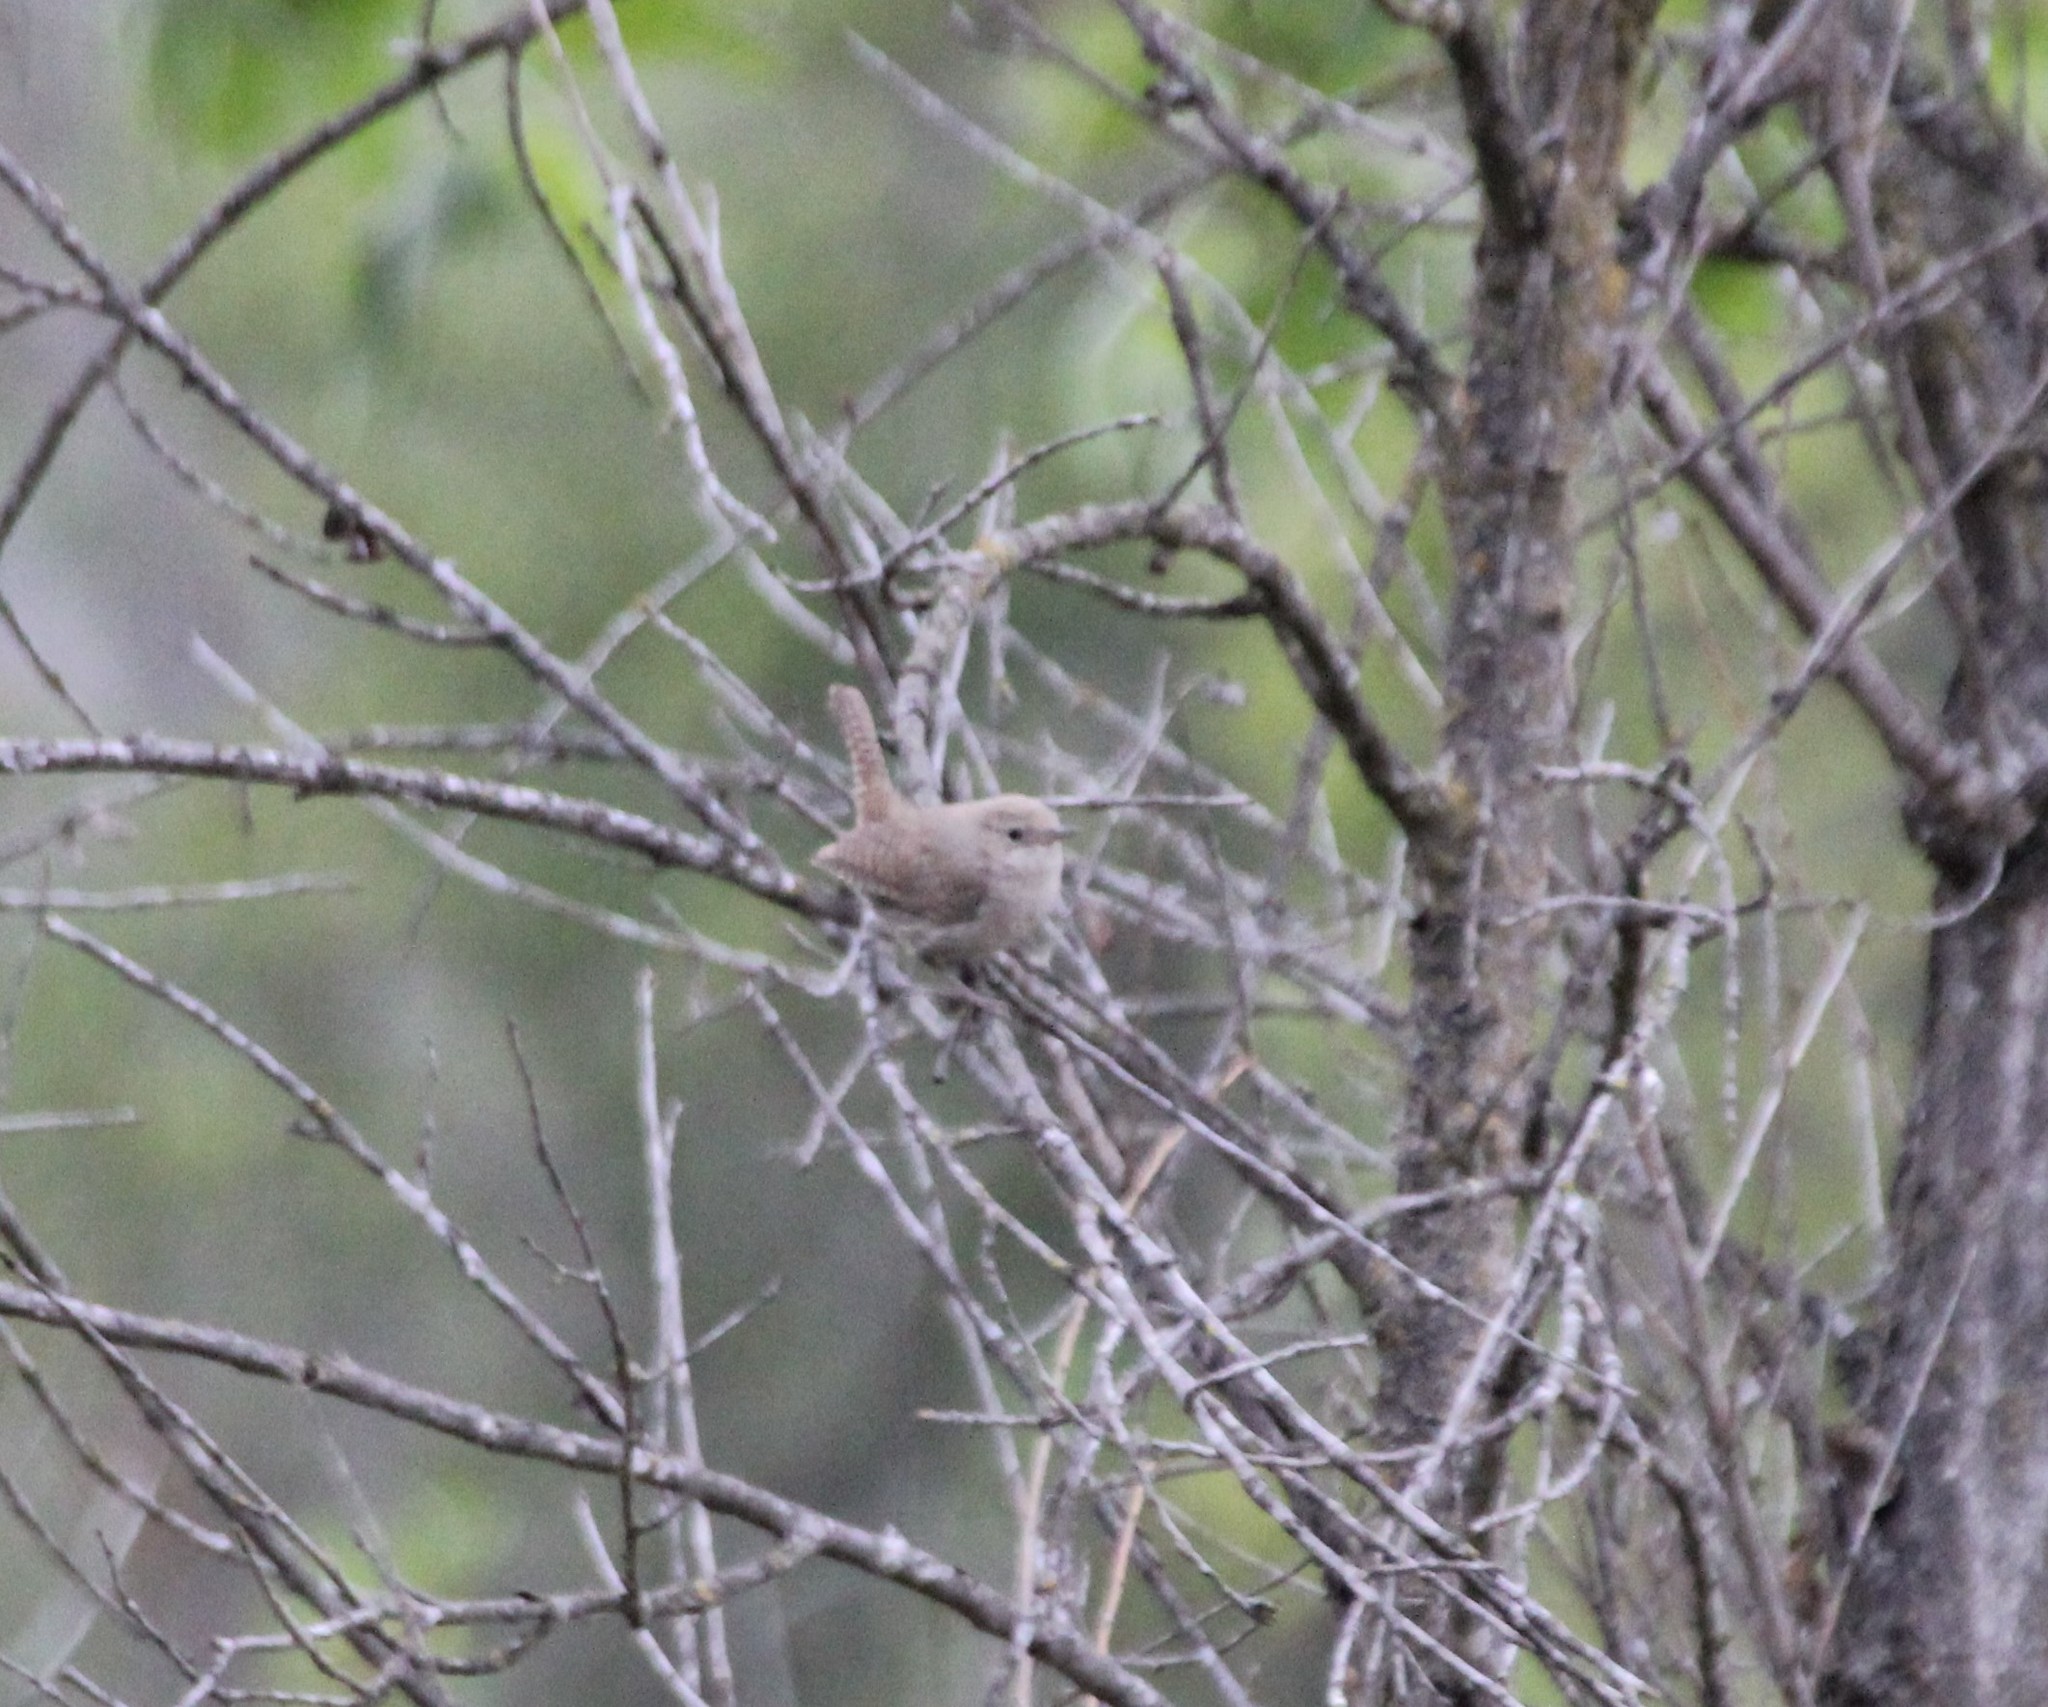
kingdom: Animalia
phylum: Chordata
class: Aves
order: Passeriformes
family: Troglodytidae
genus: Troglodytes
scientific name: Troglodytes aedon
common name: House wren
